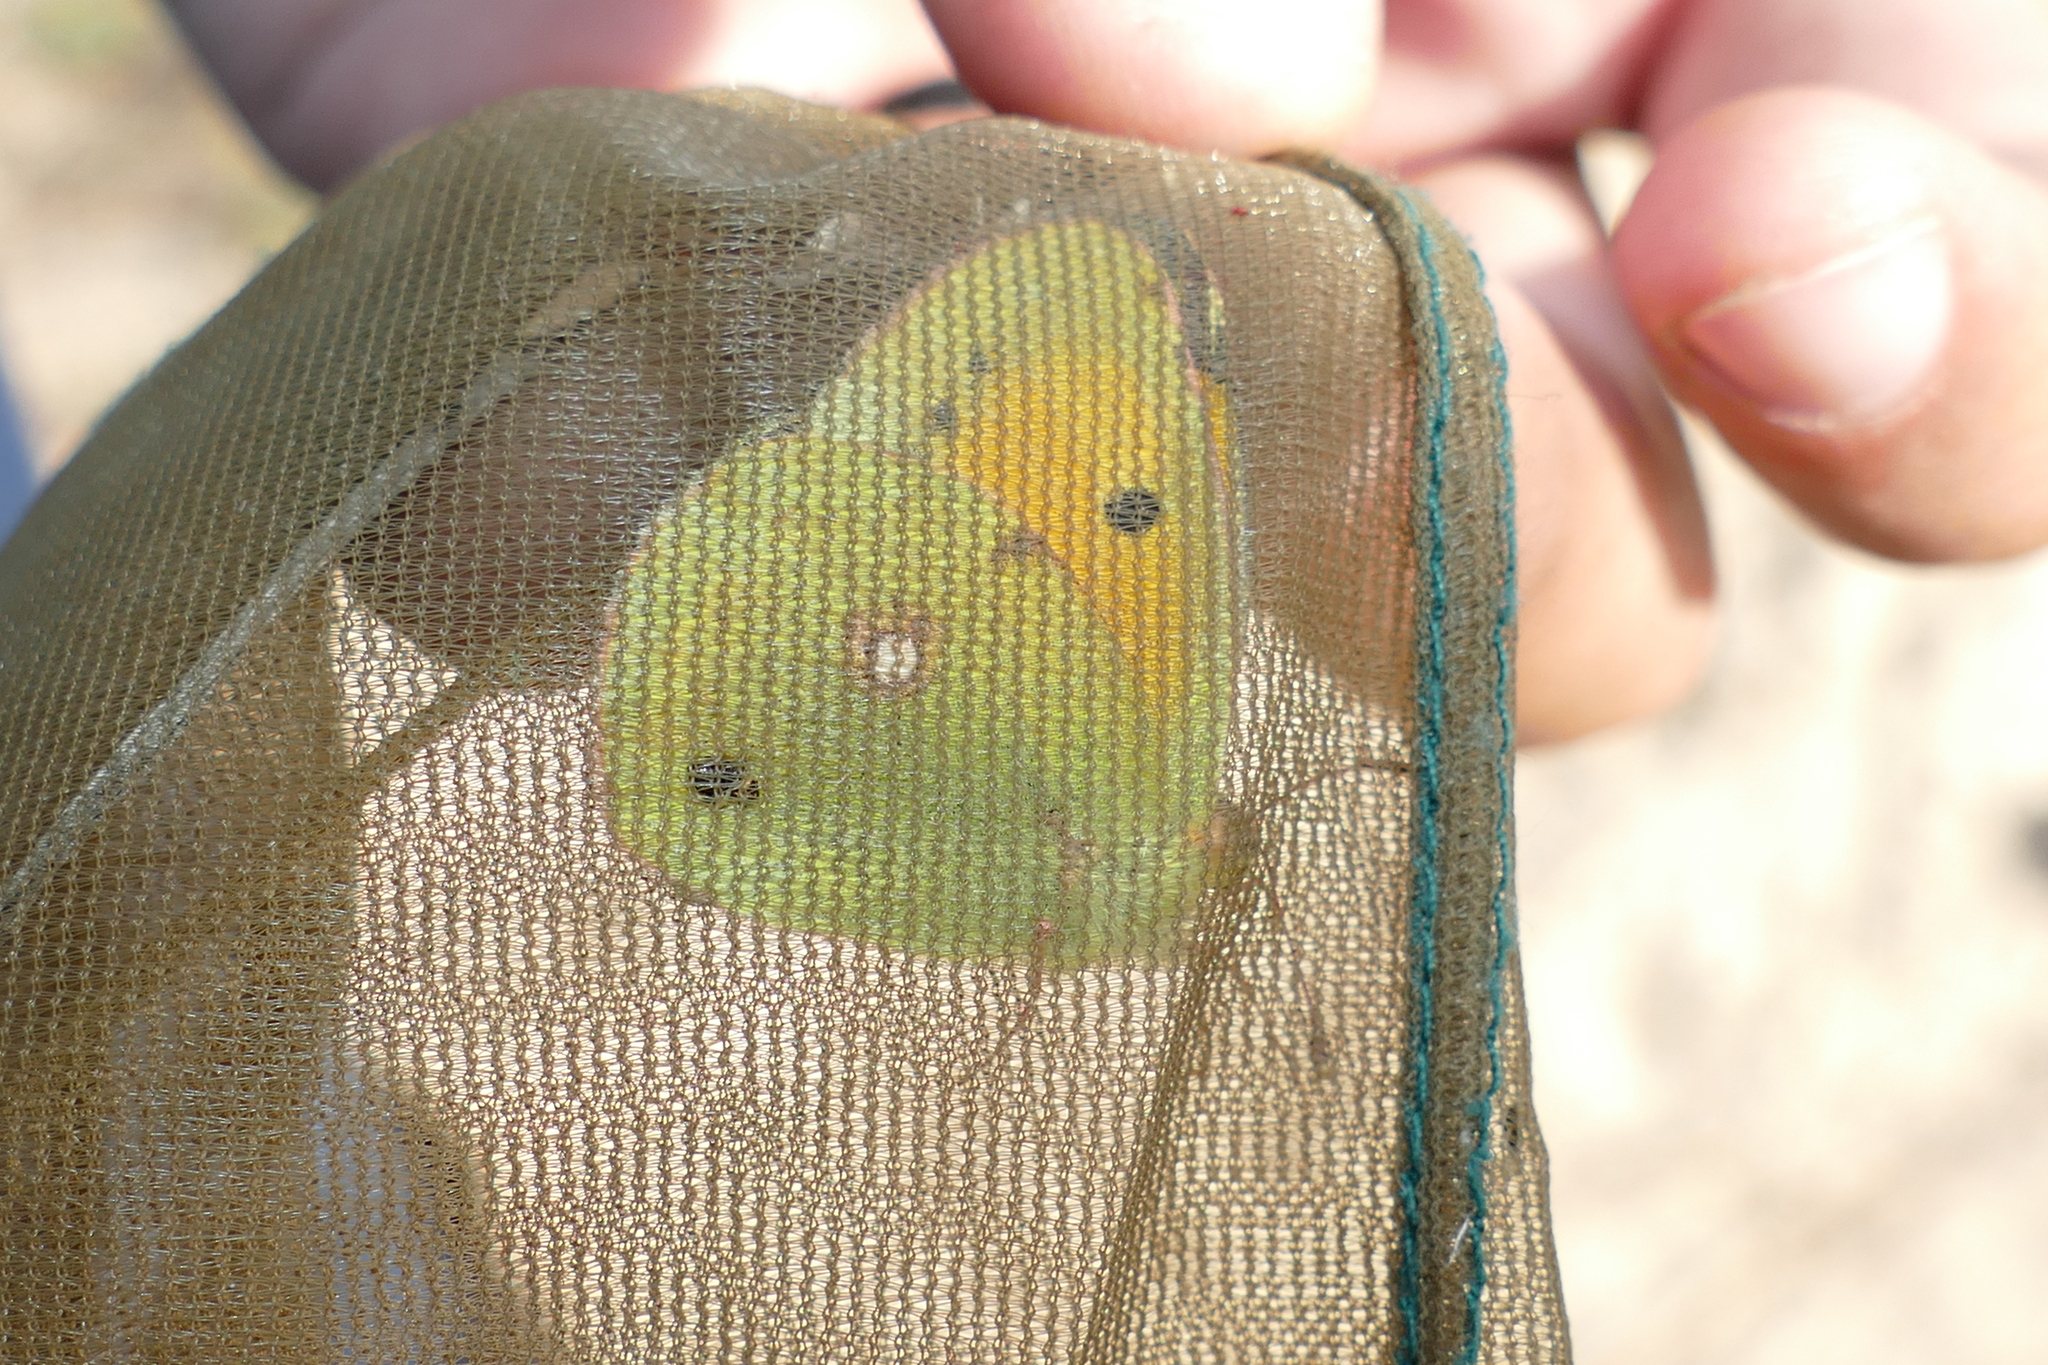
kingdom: Animalia
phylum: Arthropoda
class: Insecta
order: Lepidoptera
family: Pieridae
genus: Colias
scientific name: Colias croceus
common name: Clouded yellow
